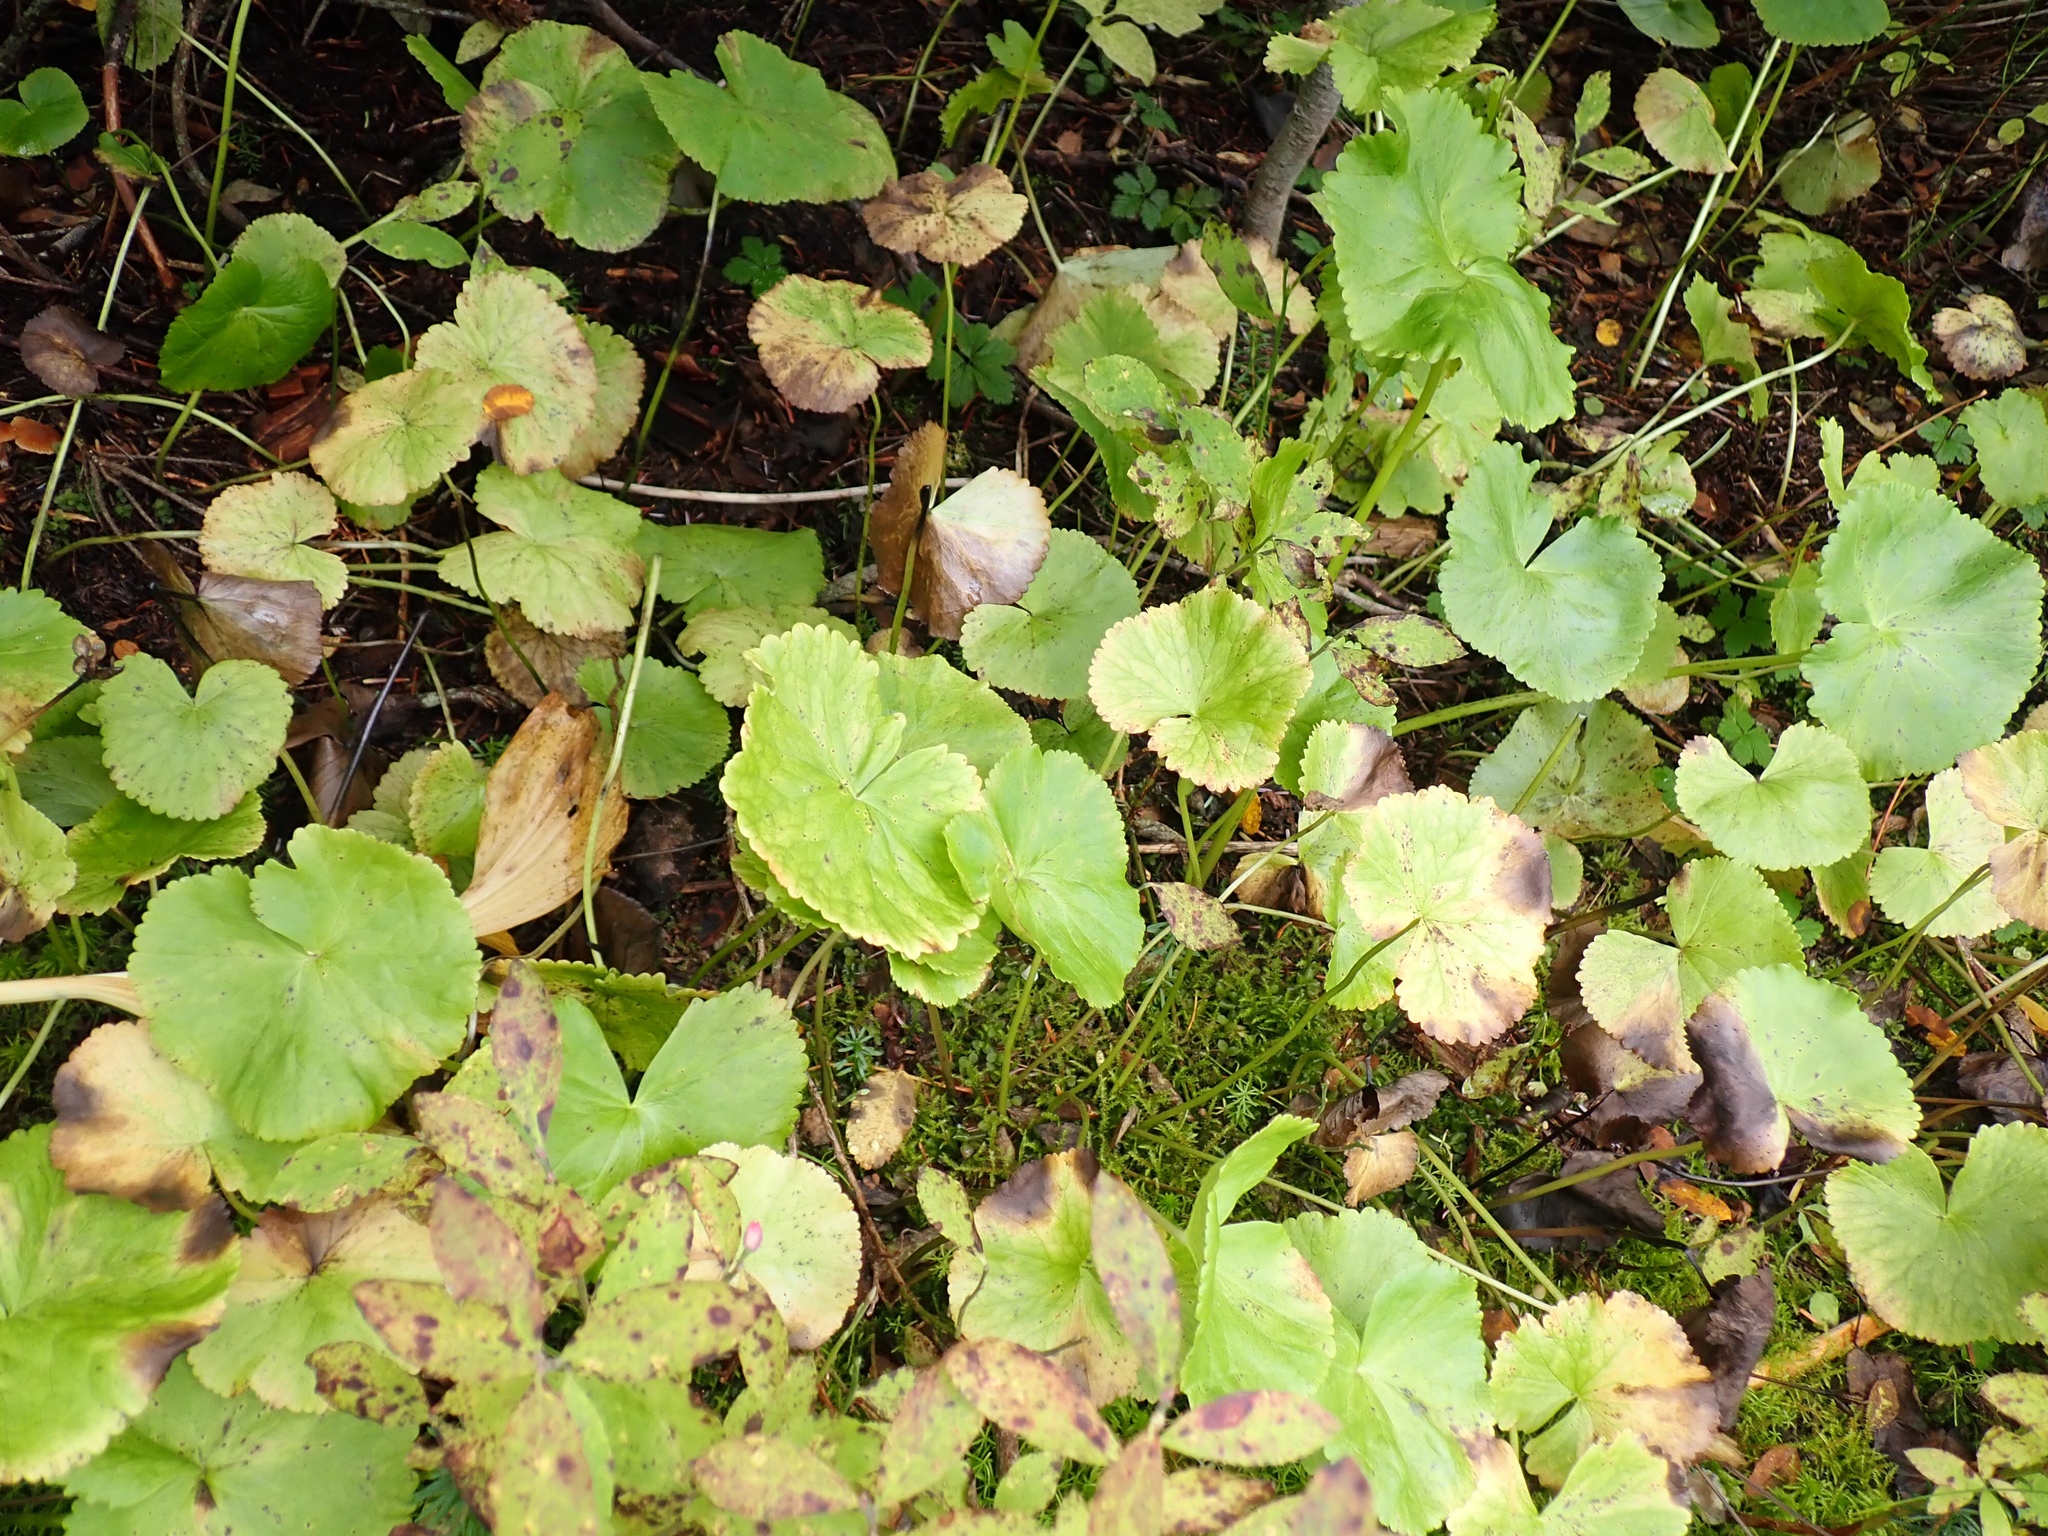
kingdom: Plantae
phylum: Tracheophyta
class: Magnoliopsida
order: Ranunculales
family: Ranunculaceae
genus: Caltha
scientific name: Caltha biflora
